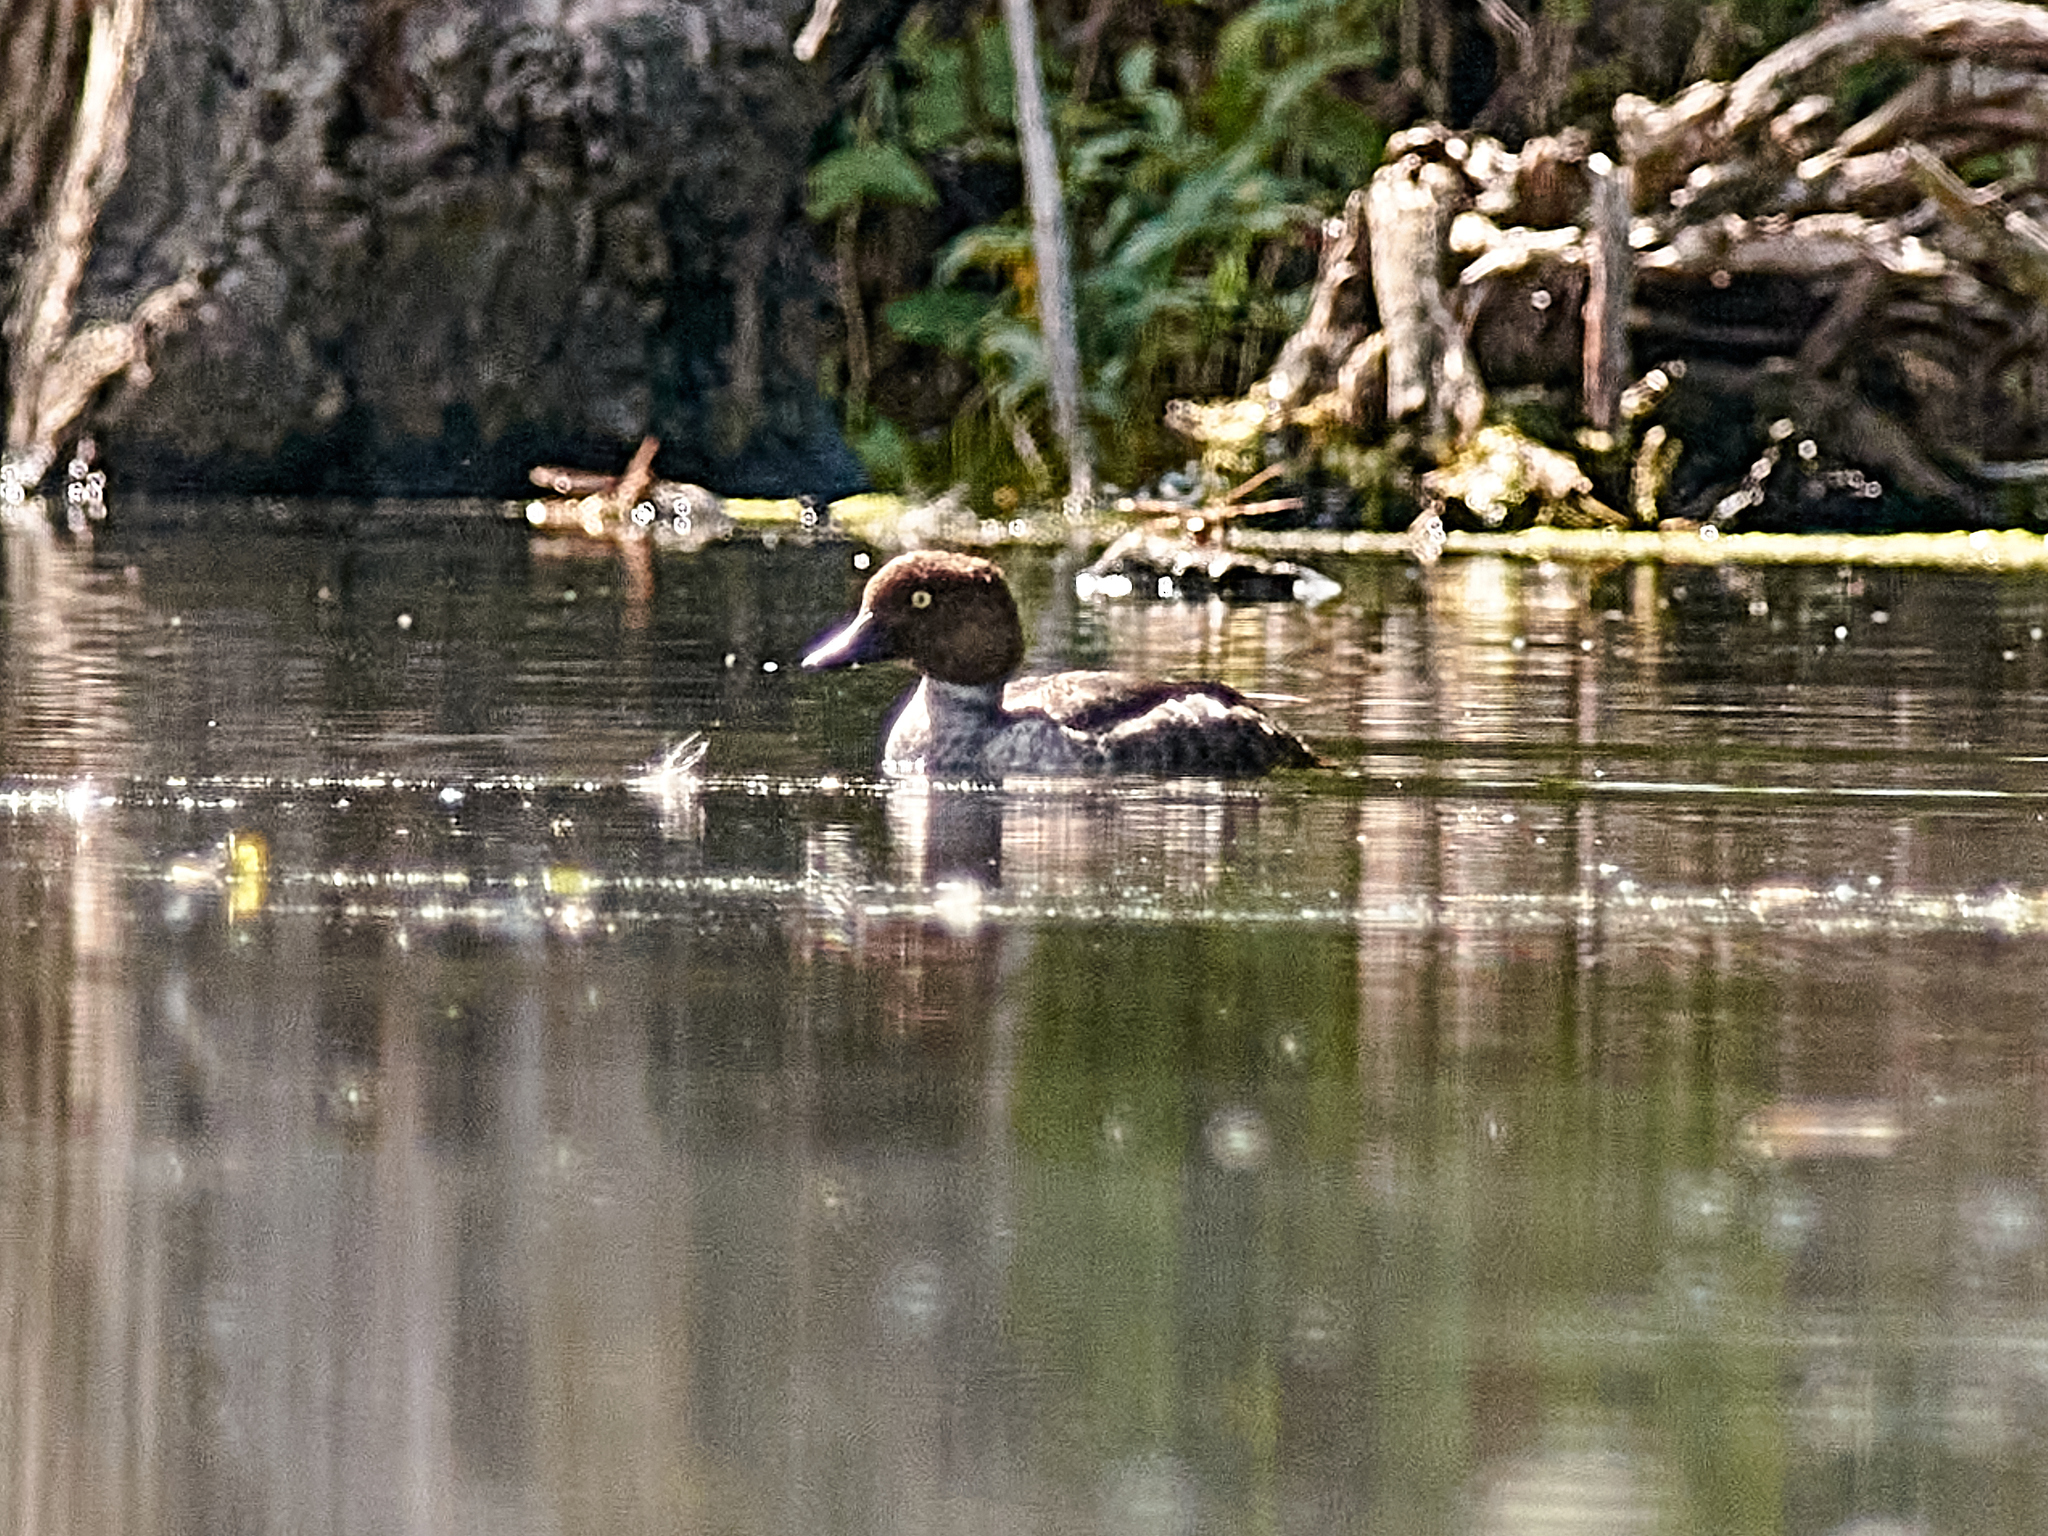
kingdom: Animalia
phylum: Chordata
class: Aves
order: Anseriformes
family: Anatidae
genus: Bucephala
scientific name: Bucephala clangula
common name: Common goldeneye
